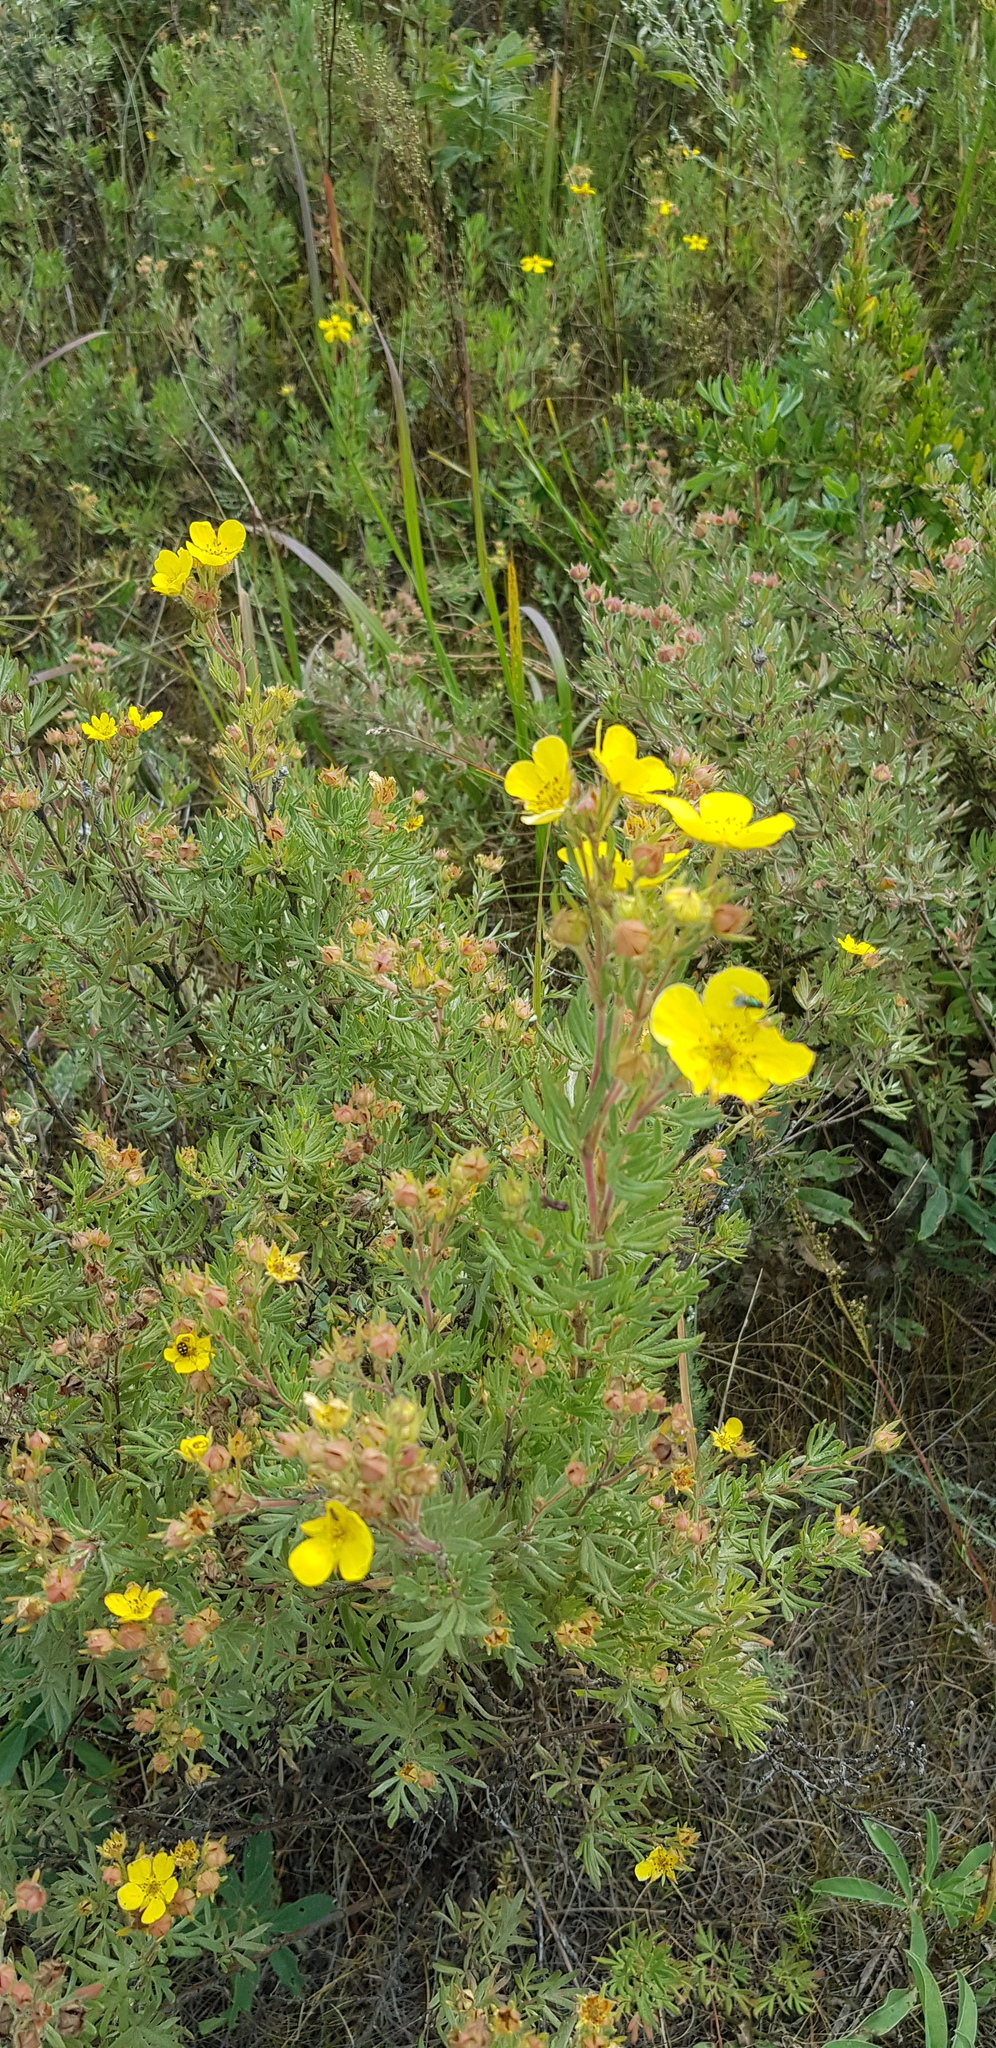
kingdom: Plantae
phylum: Tracheophyta
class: Magnoliopsida
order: Rosales
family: Rosaceae
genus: Dasiphora
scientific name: Dasiphora parvifolia
